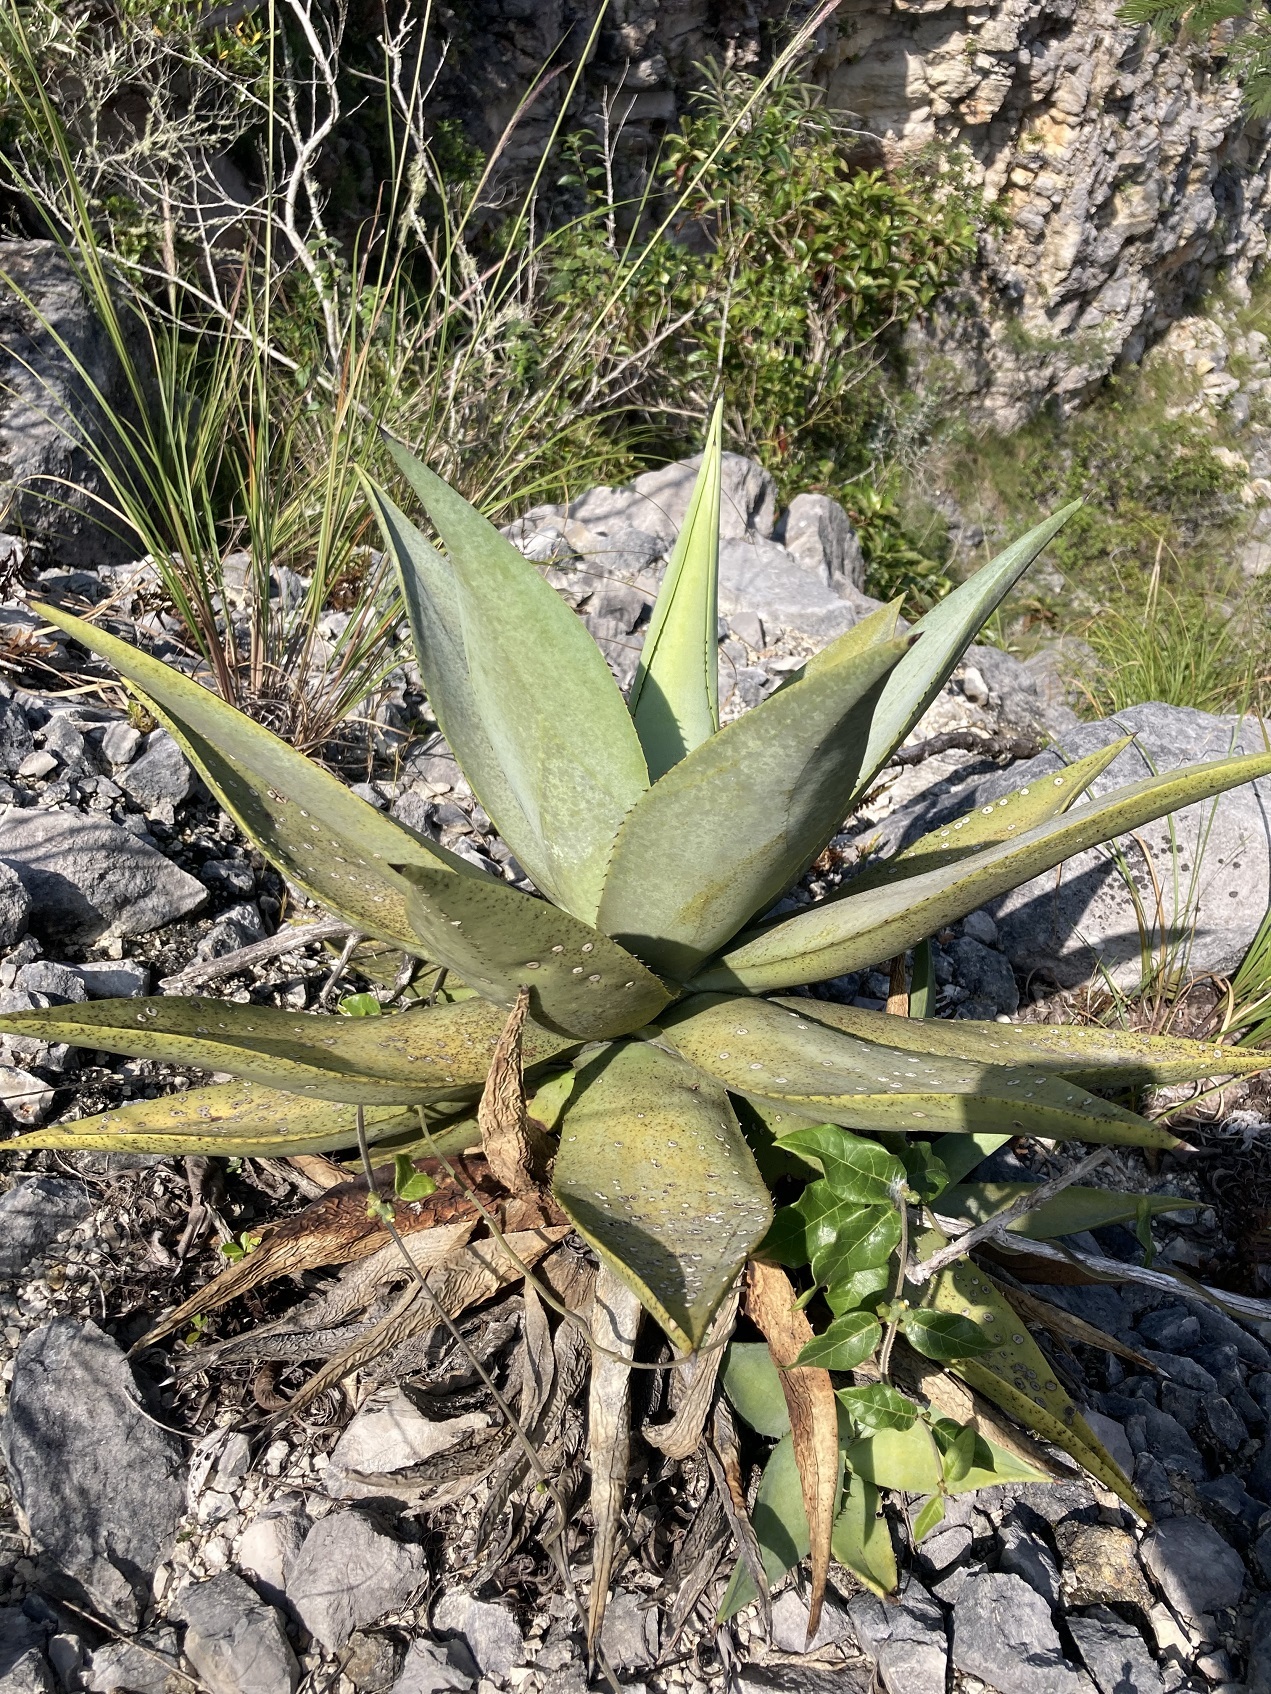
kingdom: Plantae
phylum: Tracheophyta
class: Liliopsida
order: Asparagales
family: Asparagaceae
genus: Agave
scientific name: Agave
